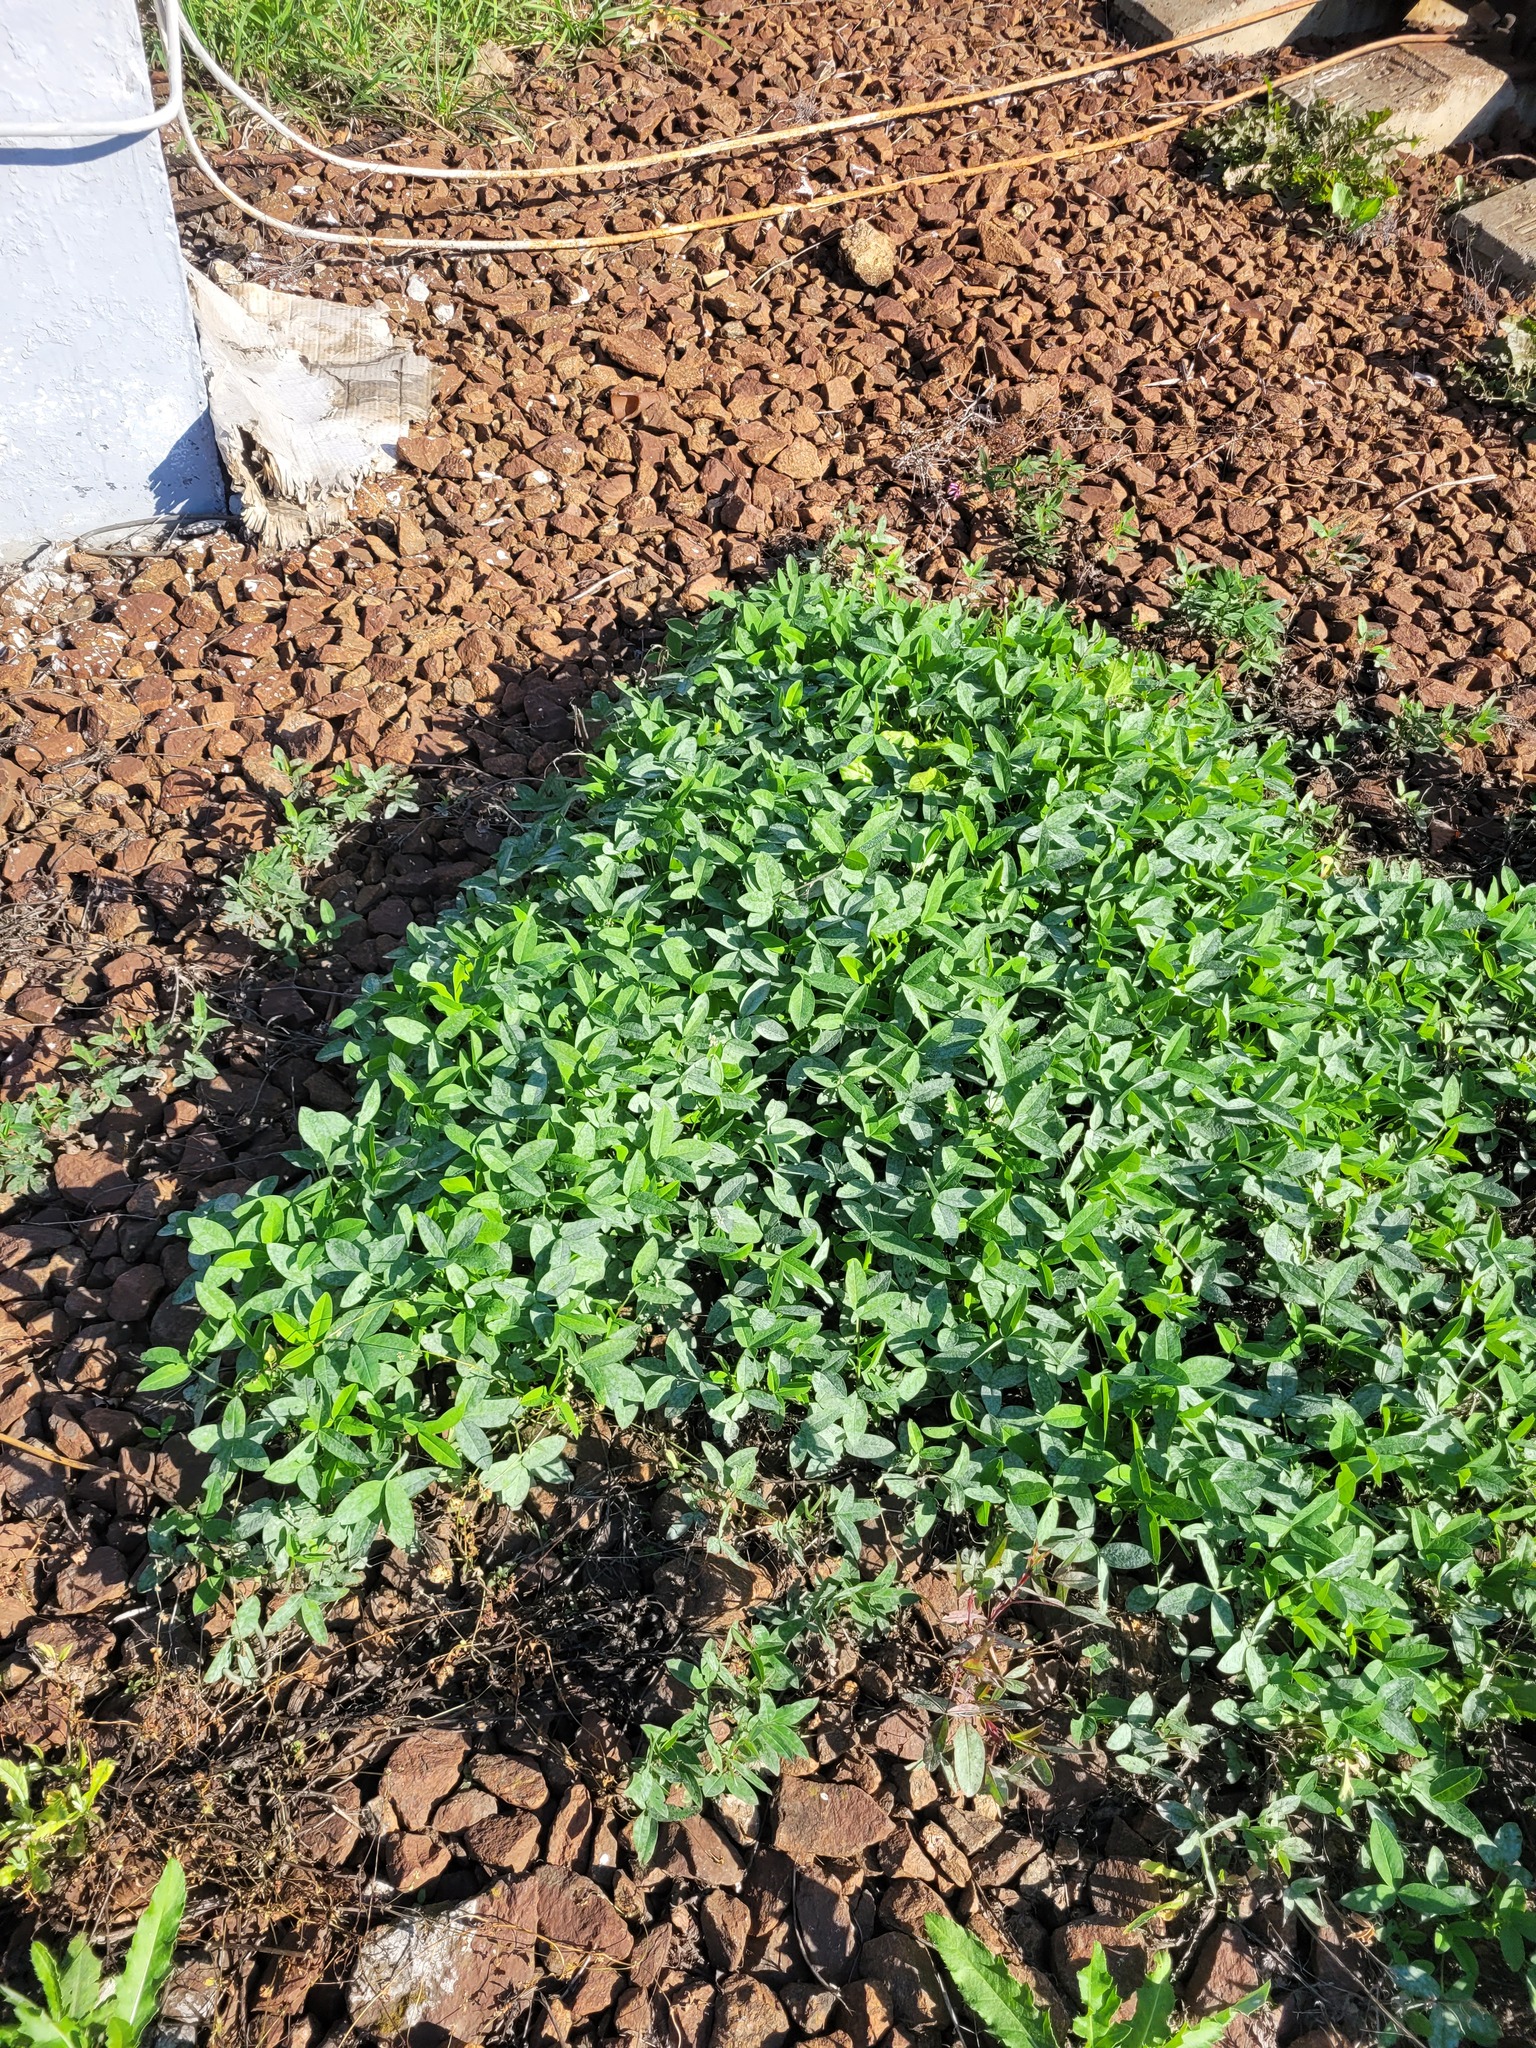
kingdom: Plantae
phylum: Tracheophyta
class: Magnoliopsida
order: Fabales
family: Fabaceae
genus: Trifolium
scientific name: Trifolium medium
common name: Zigzag clover
